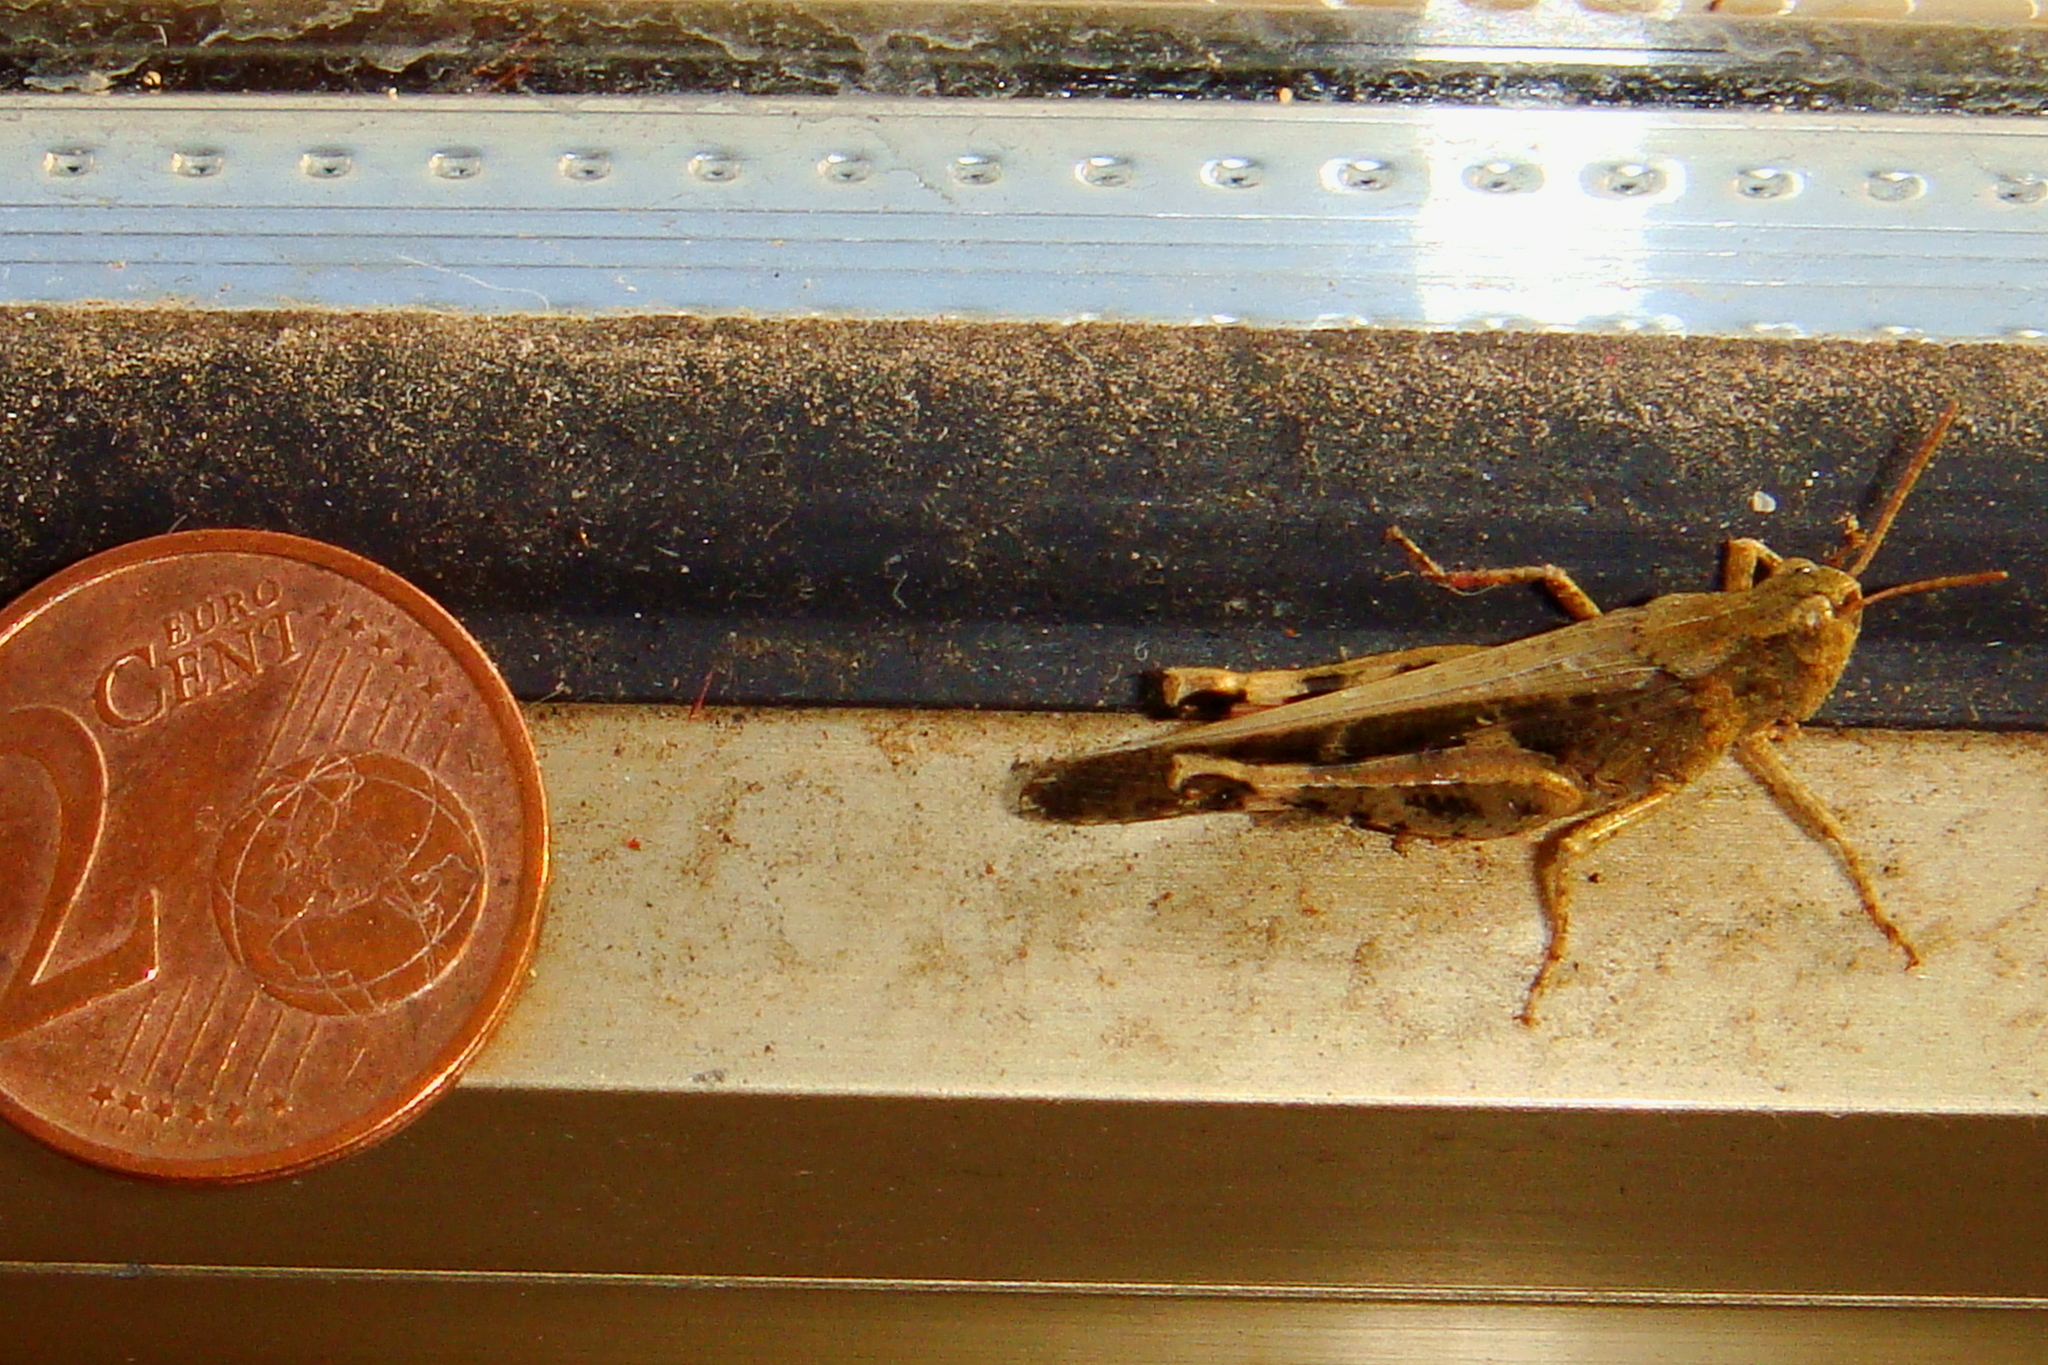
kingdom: Animalia
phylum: Arthropoda
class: Insecta
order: Orthoptera
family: Acrididae
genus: Aiolopus
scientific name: Aiolopus strepens
